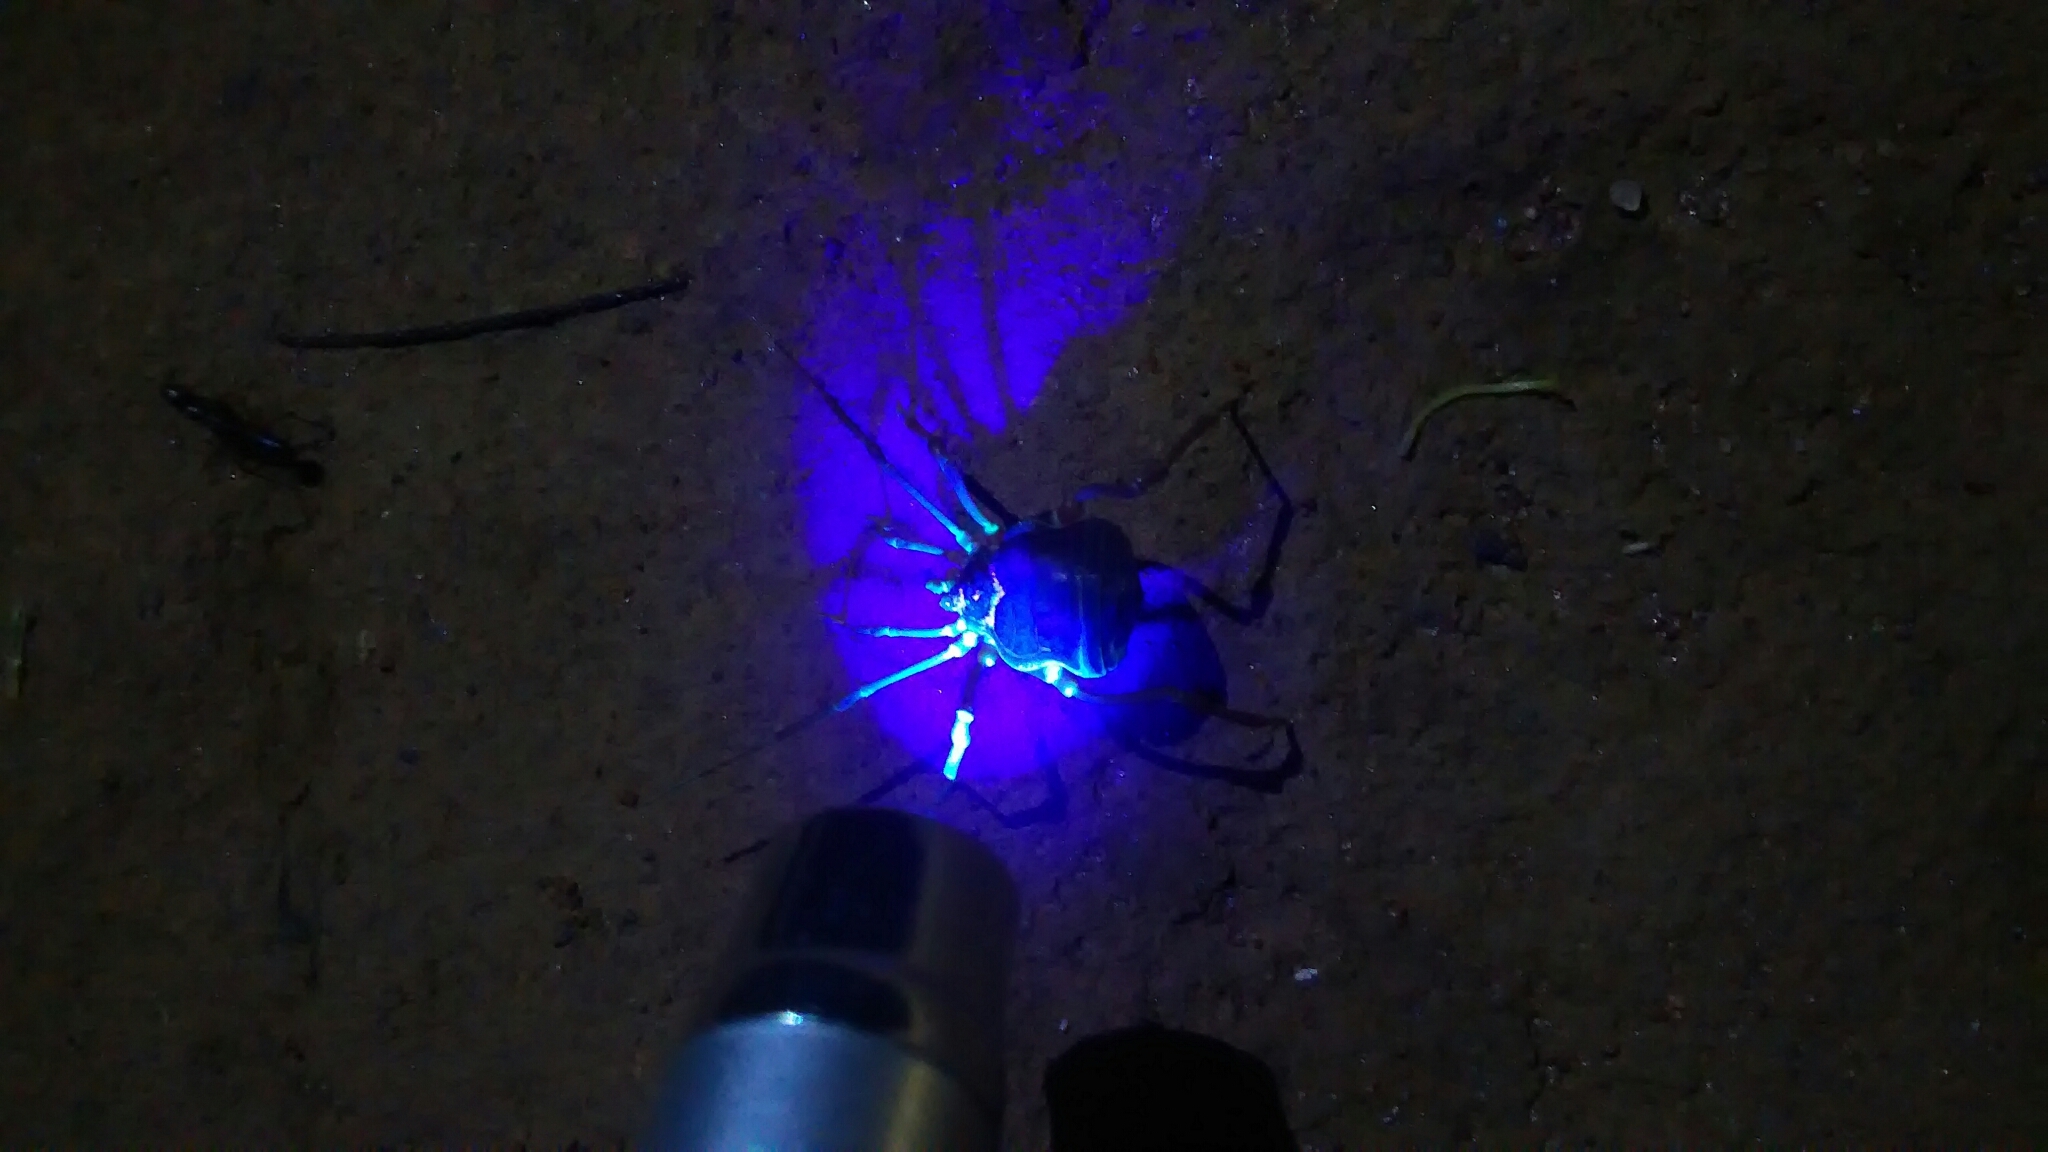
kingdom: Animalia
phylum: Arthropoda
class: Arachnida
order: Opiliones
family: Gonyleptidae
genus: Liogonyleptoides
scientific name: Liogonyleptoides inermis
